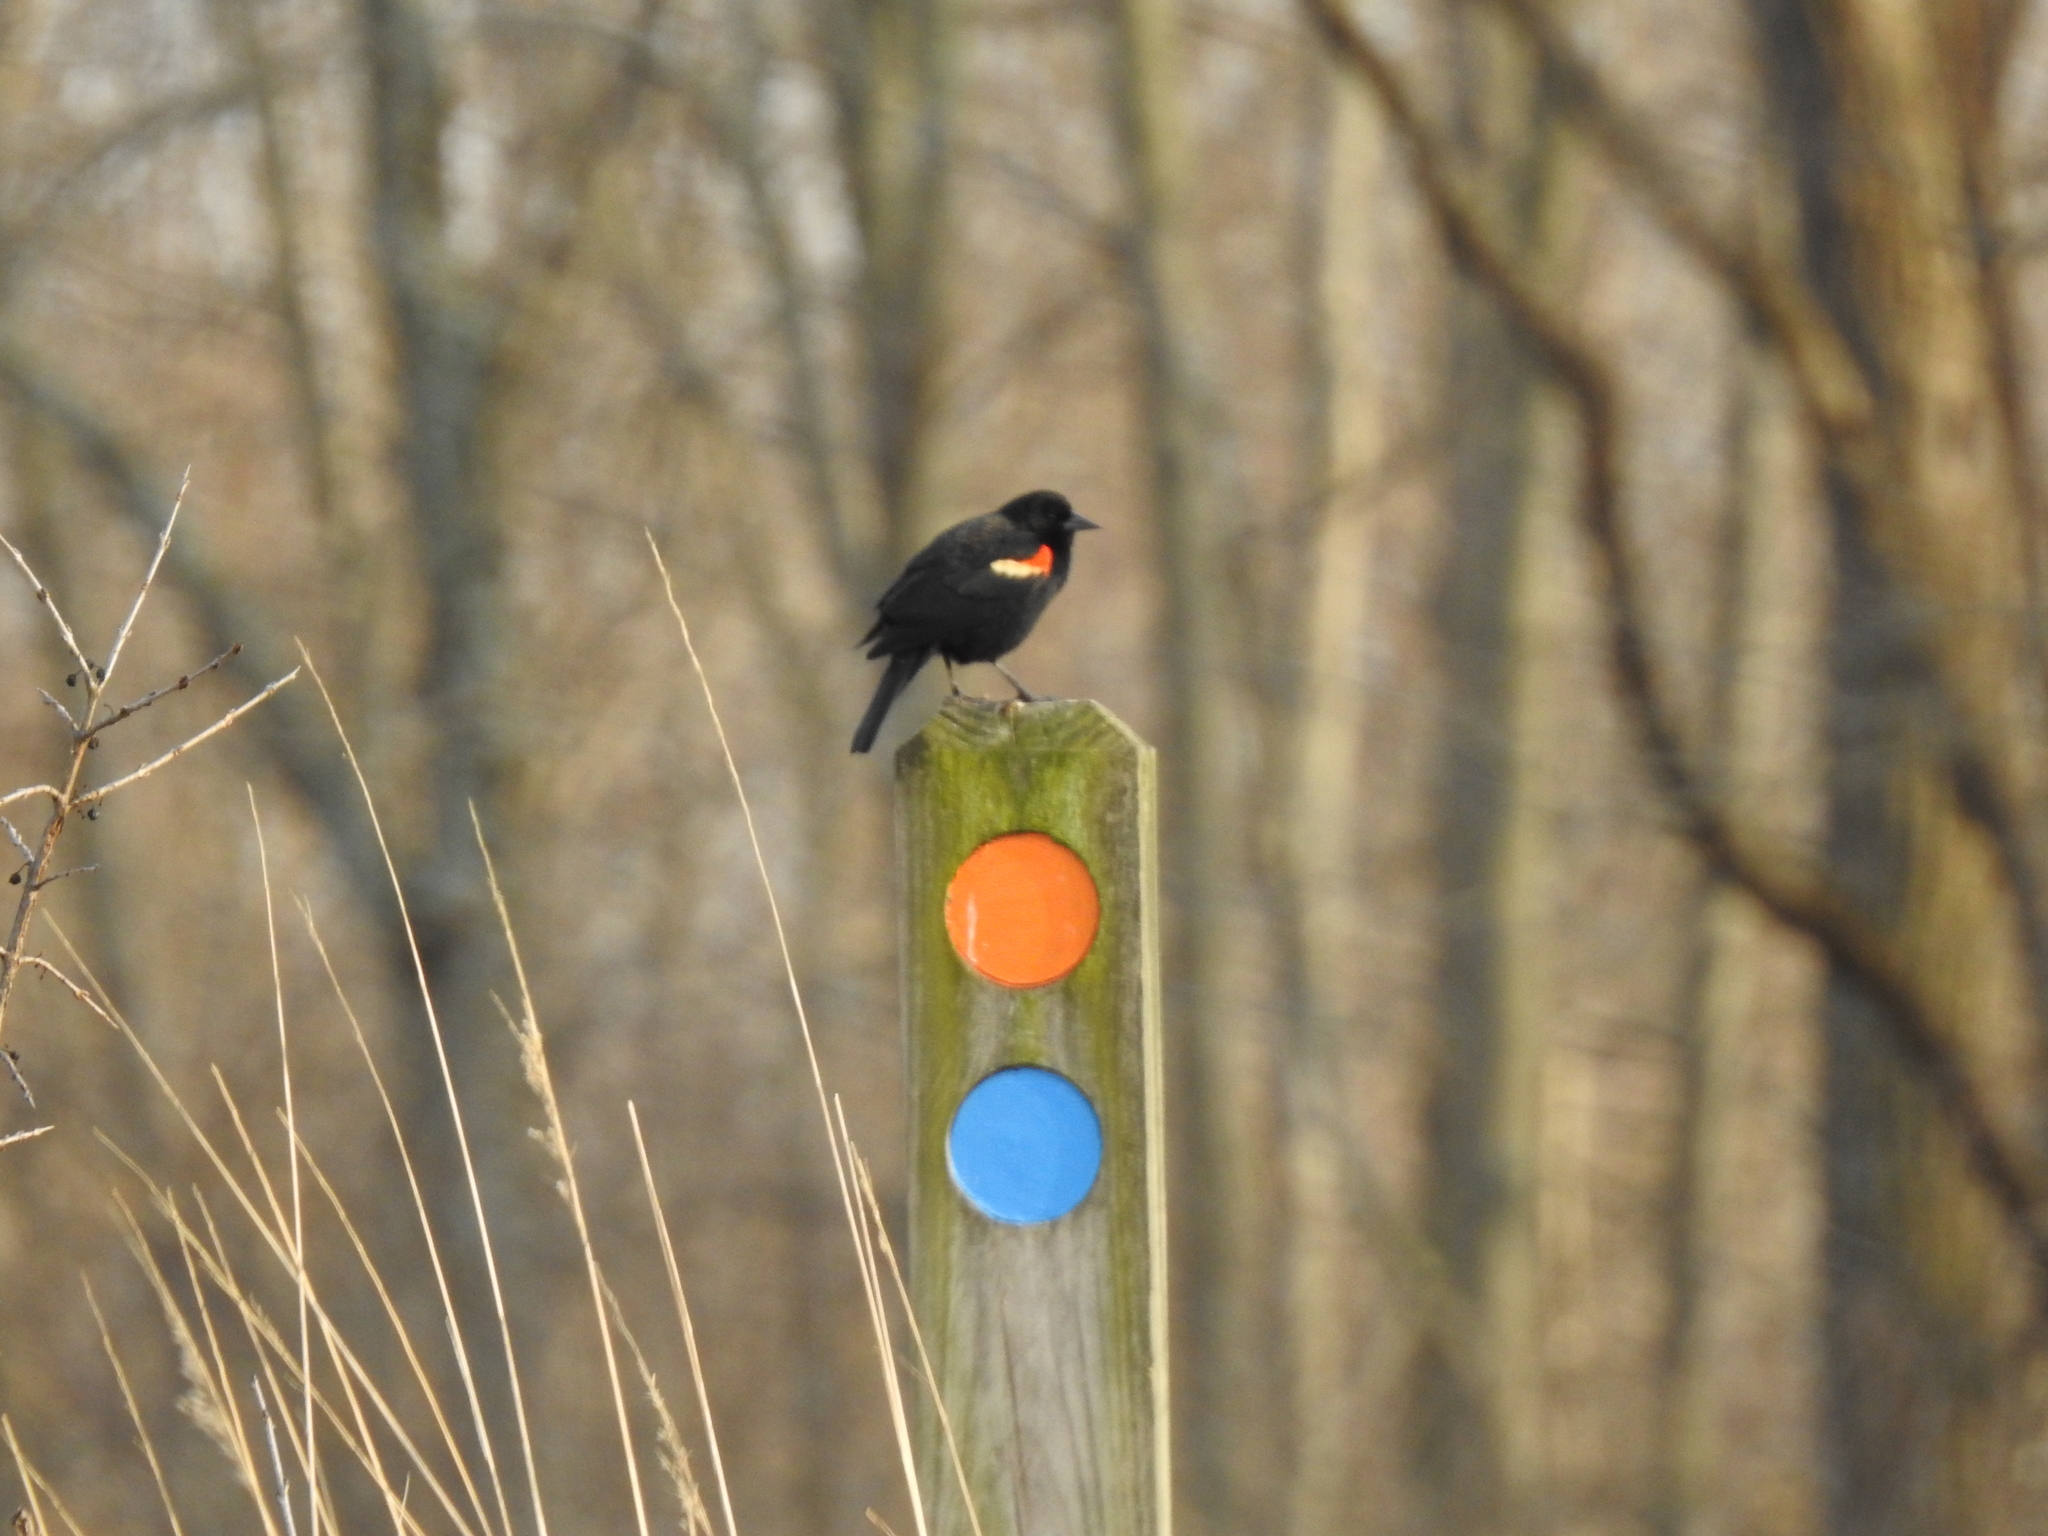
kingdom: Animalia
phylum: Chordata
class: Aves
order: Passeriformes
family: Icteridae
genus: Agelaius
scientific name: Agelaius phoeniceus
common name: Red-winged blackbird
